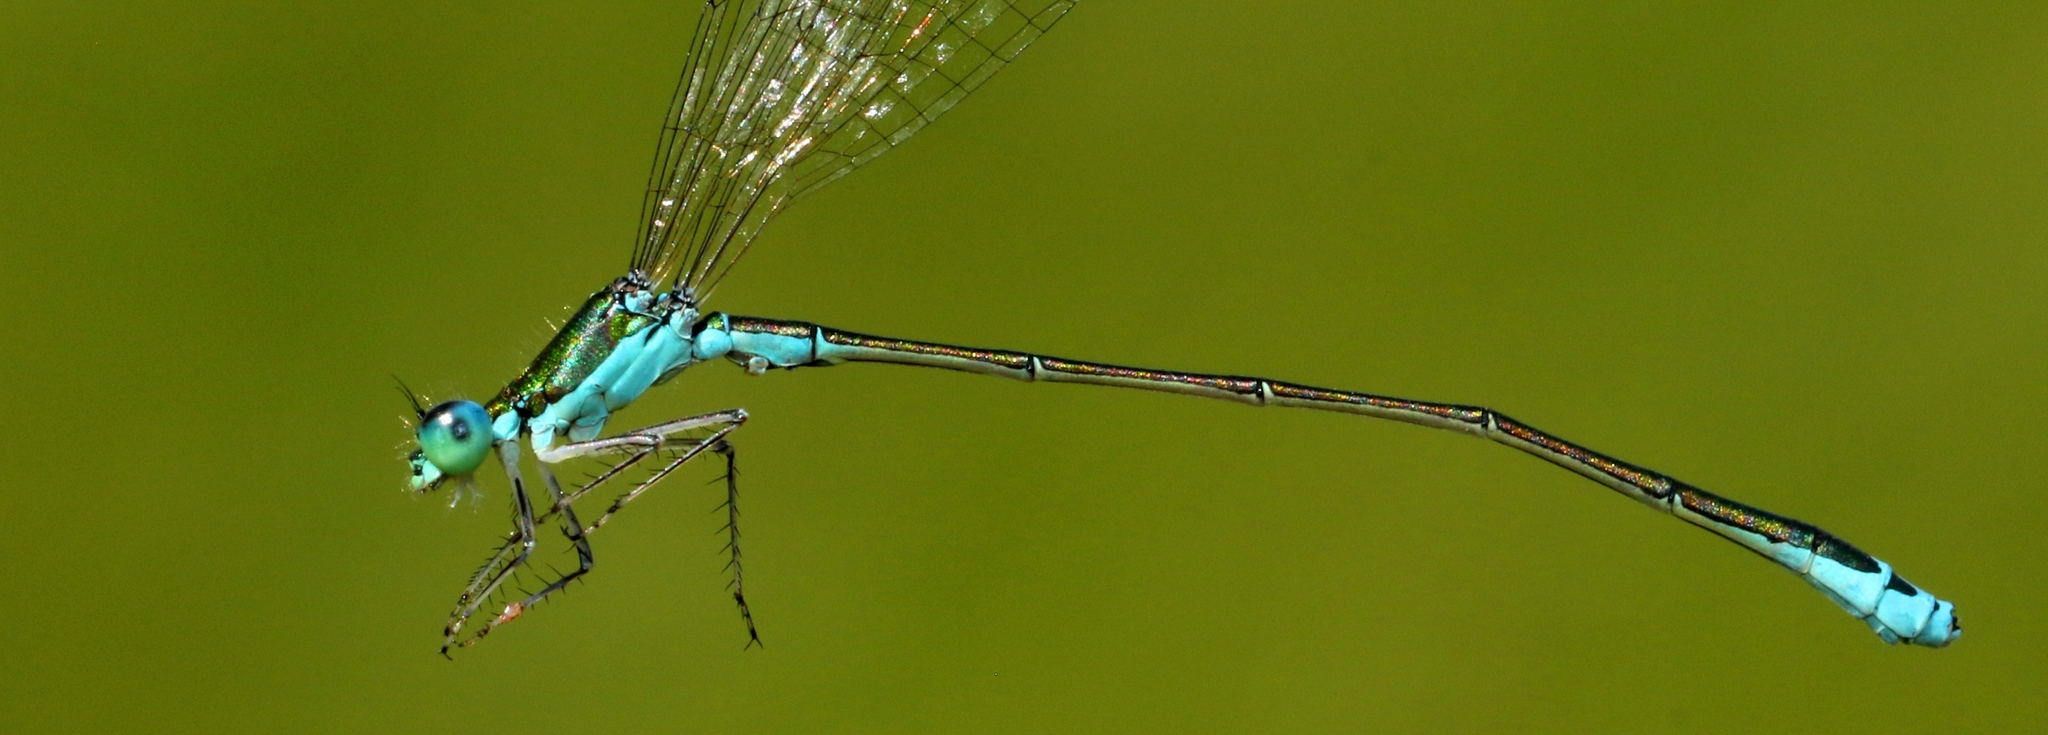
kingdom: Animalia
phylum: Arthropoda
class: Insecta
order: Odonata
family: Coenagrionidae
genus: Nehalennia
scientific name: Nehalennia irene
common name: Sedge sprite
